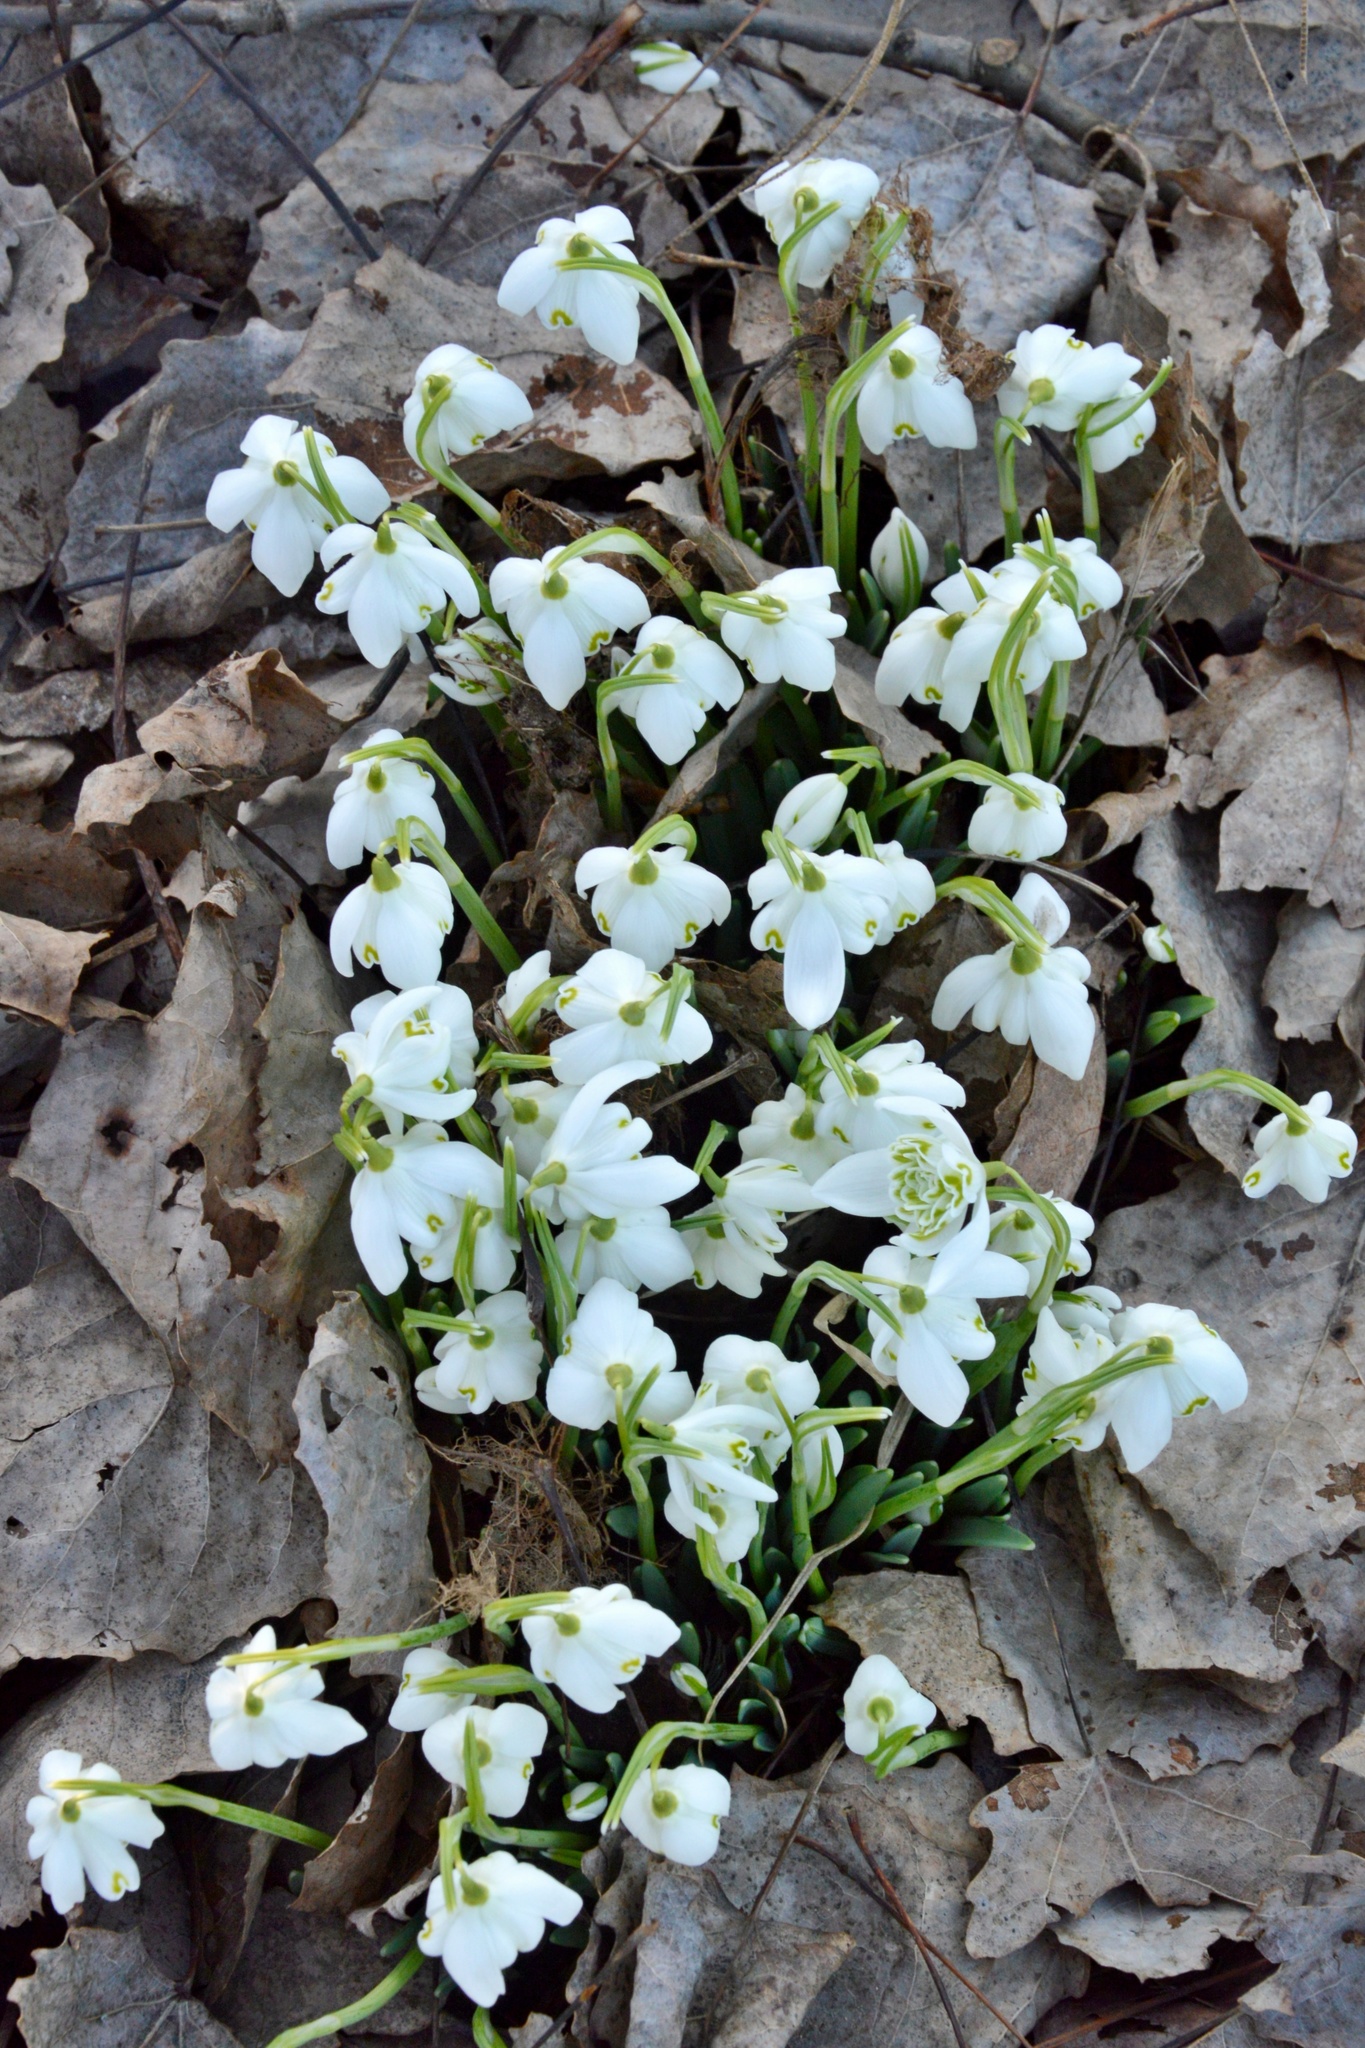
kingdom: Plantae
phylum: Tracheophyta
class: Liliopsida
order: Asparagales
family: Amaryllidaceae
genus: Galanthus
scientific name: Galanthus nivalis
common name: Snowdrop
